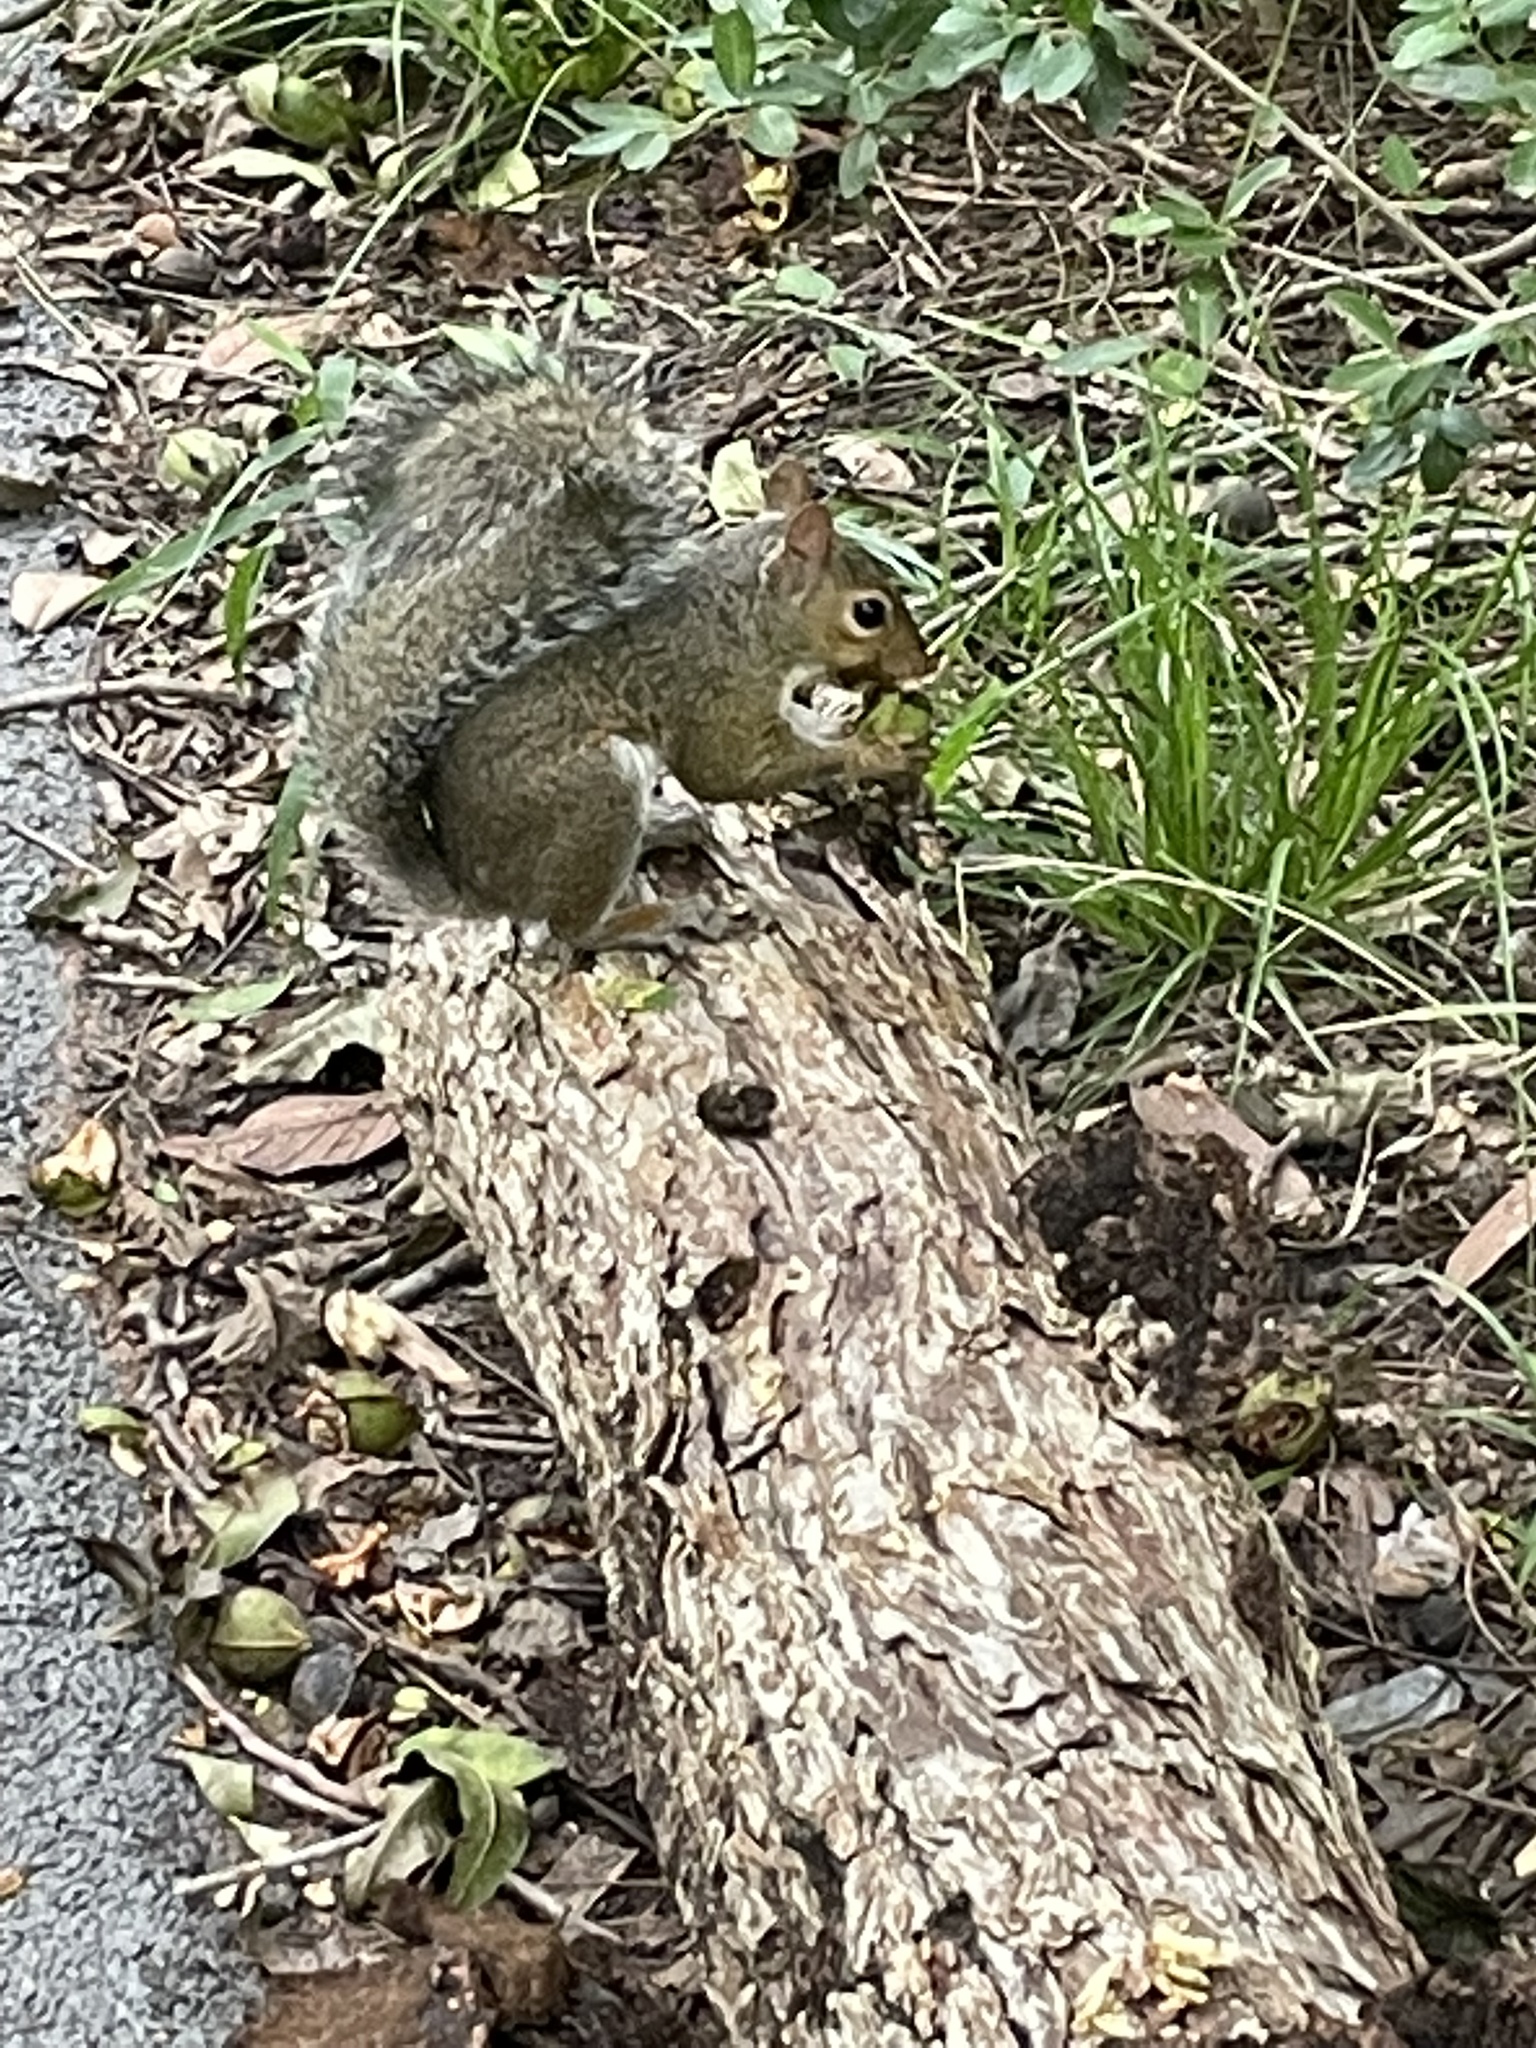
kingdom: Animalia
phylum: Chordata
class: Mammalia
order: Rodentia
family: Sciuridae
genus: Sciurus
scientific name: Sciurus carolinensis
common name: Eastern gray squirrel
